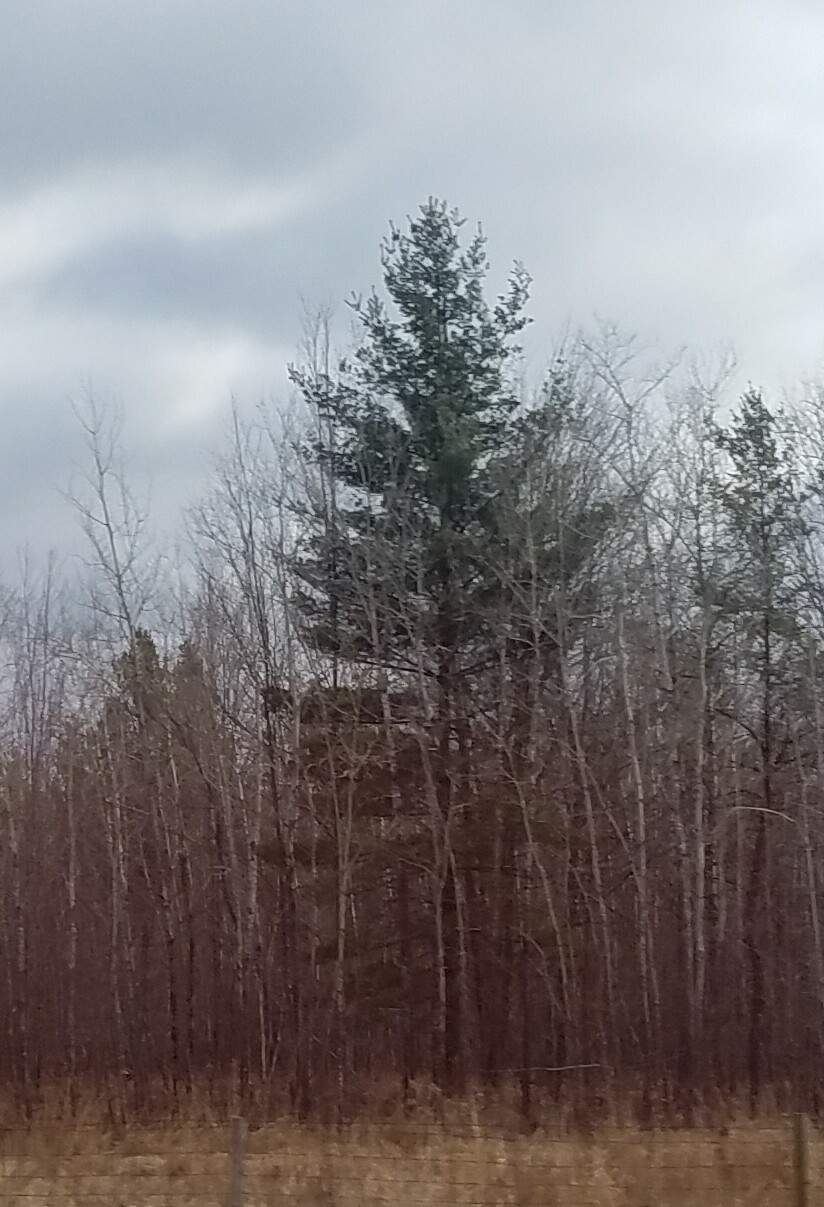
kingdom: Plantae
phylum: Tracheophyta
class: Pinopsida
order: Pinales
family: Pinaceae
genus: Pinus
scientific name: Pinus strobus
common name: Weymouth pine
